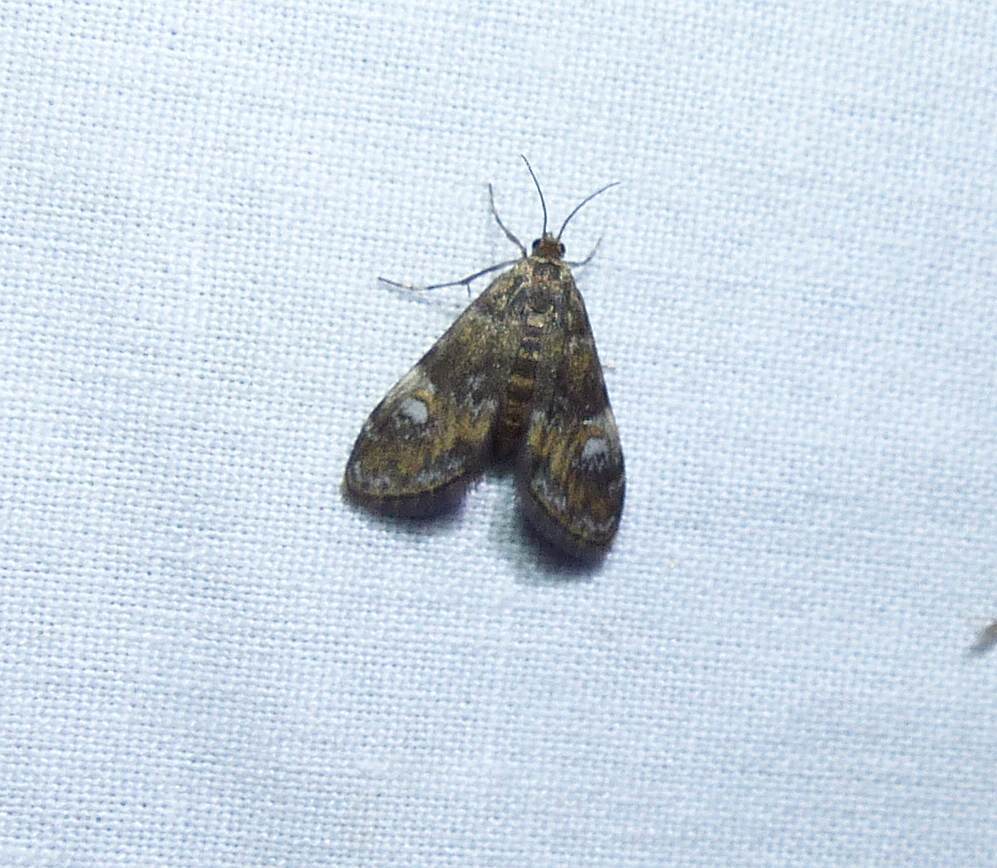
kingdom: Animalia
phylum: Arthropoda
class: Insecta
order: Lepidoptera
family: Crambidae
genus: Elophila
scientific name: Elophila obliteralis
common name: Waterlily leafcutter moth
